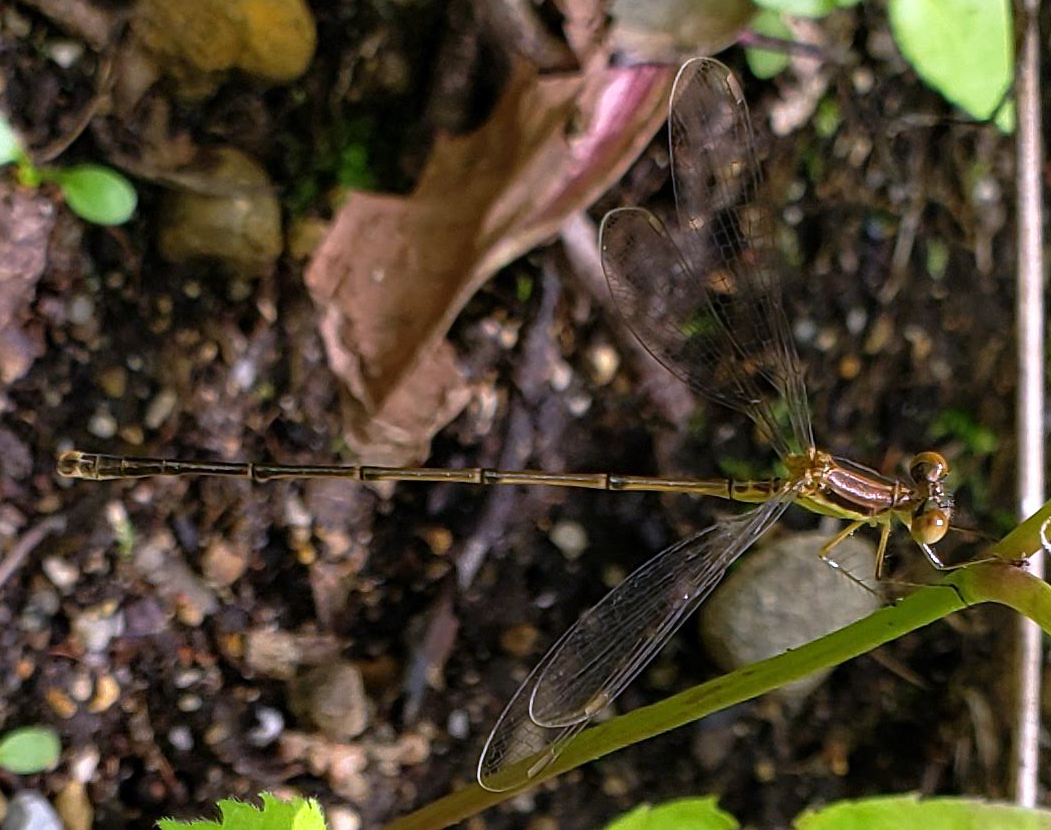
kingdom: Animalia
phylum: Arthropoda
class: Insecta
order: Odonata
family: Lestidae
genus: Lestes
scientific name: Lestes rectangularis
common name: Slender spreadwing
